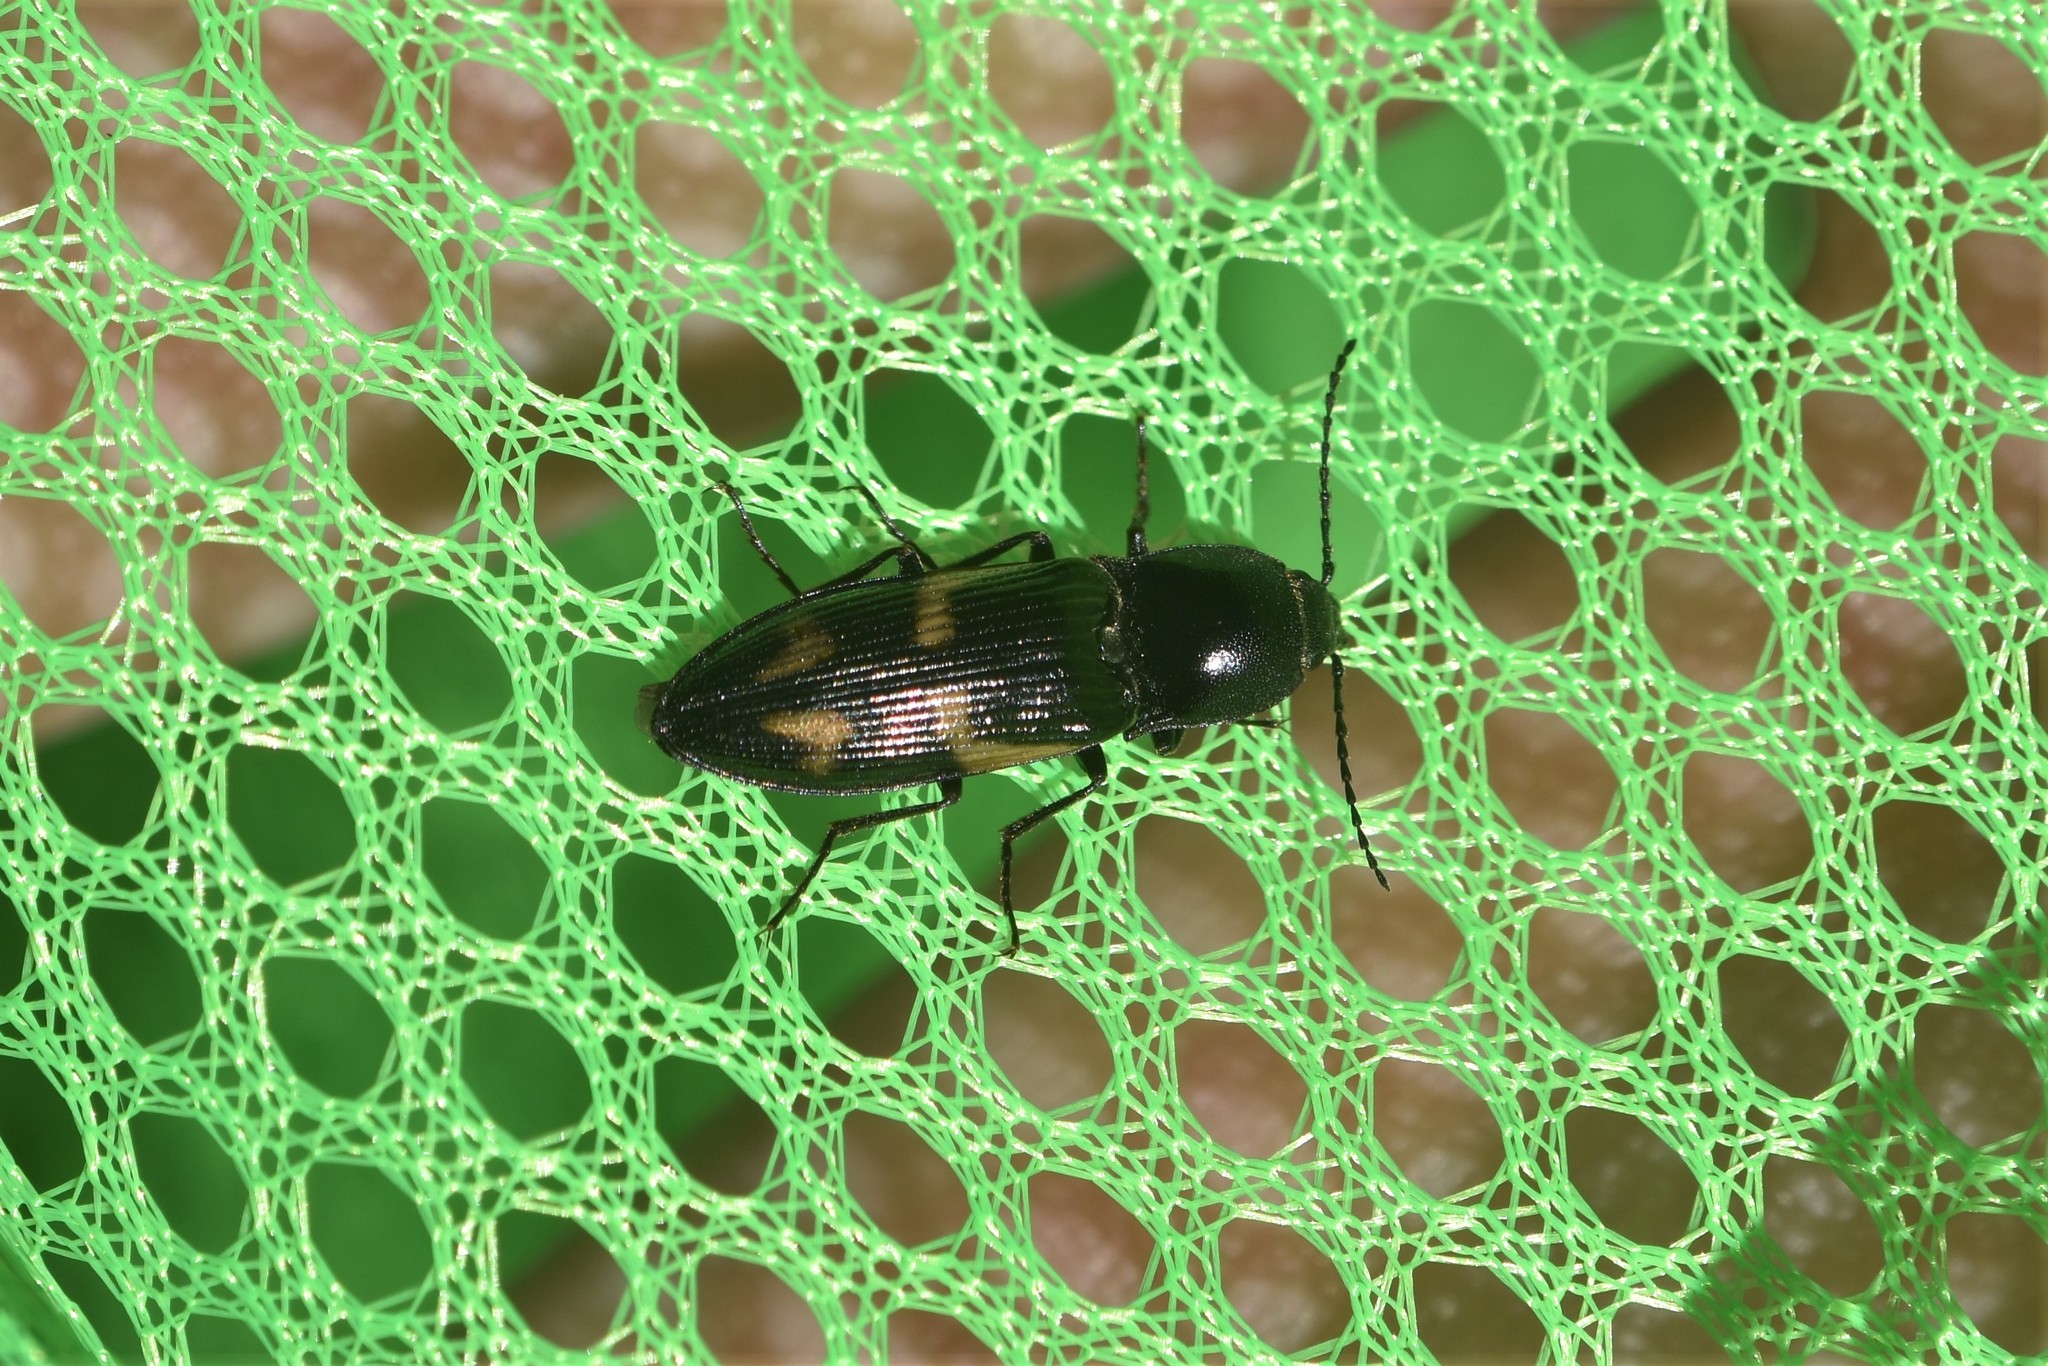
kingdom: Animalia
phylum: Arthropoda
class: Insecta
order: Coleoptera
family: Elateridae
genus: Selatosomus
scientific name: Selatosomus suckleyi
